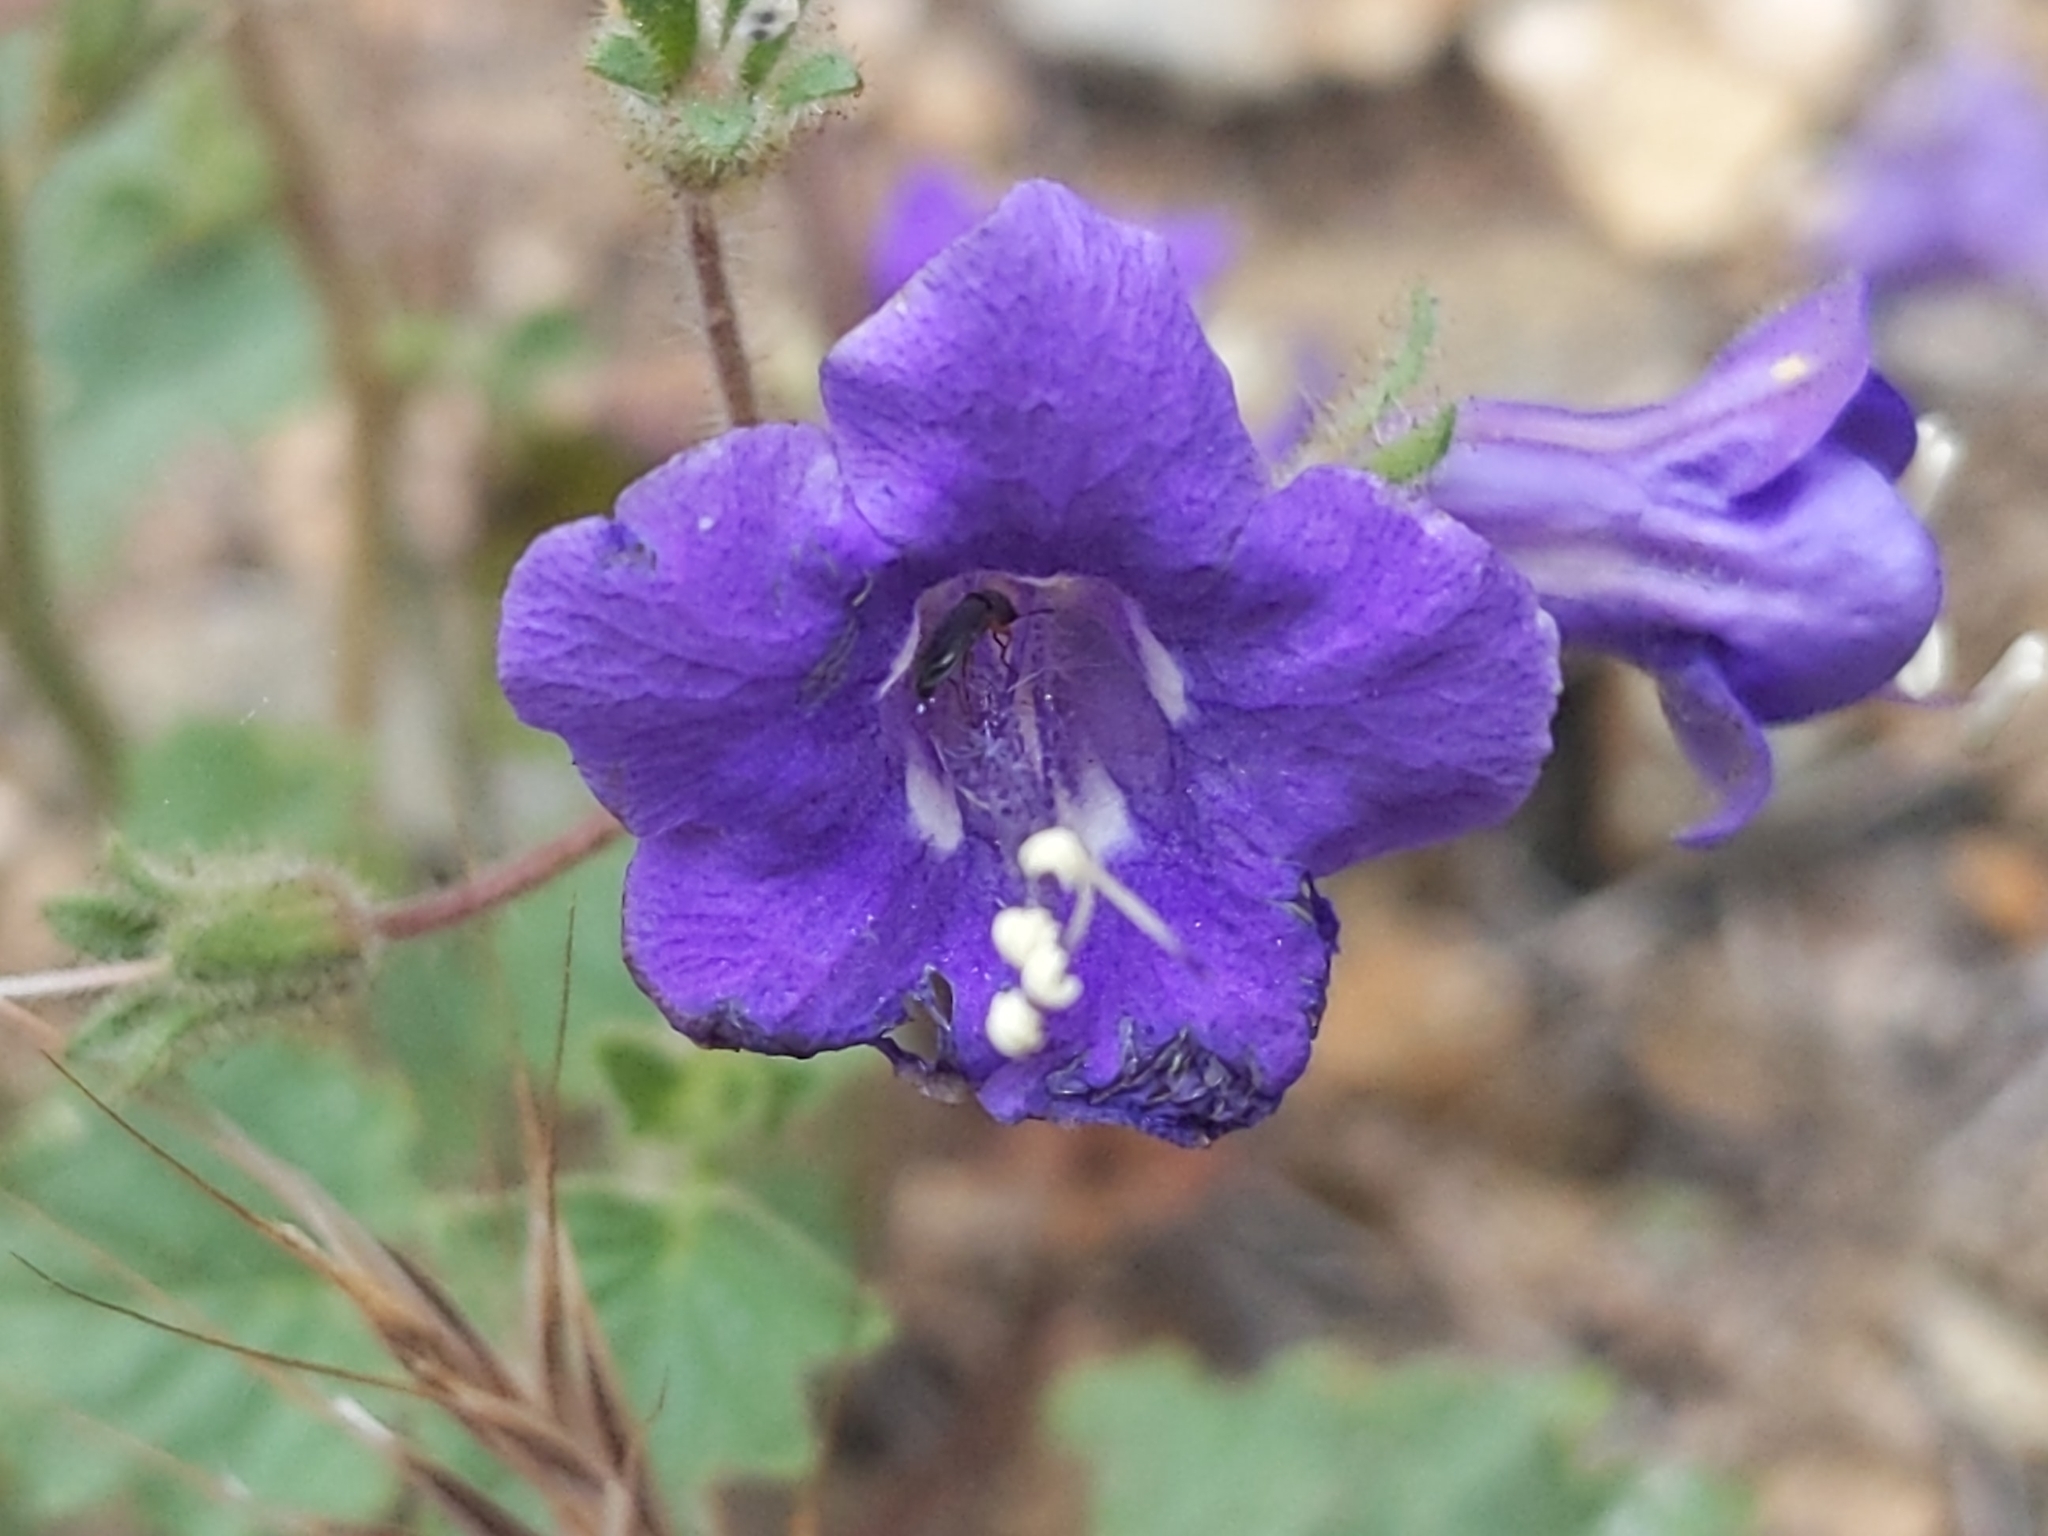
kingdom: Plantae
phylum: Tracheophyta
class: Magnoliopsida
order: Boraginales
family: Hydrophyllaceae
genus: Phacelia
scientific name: Phacelia minor
